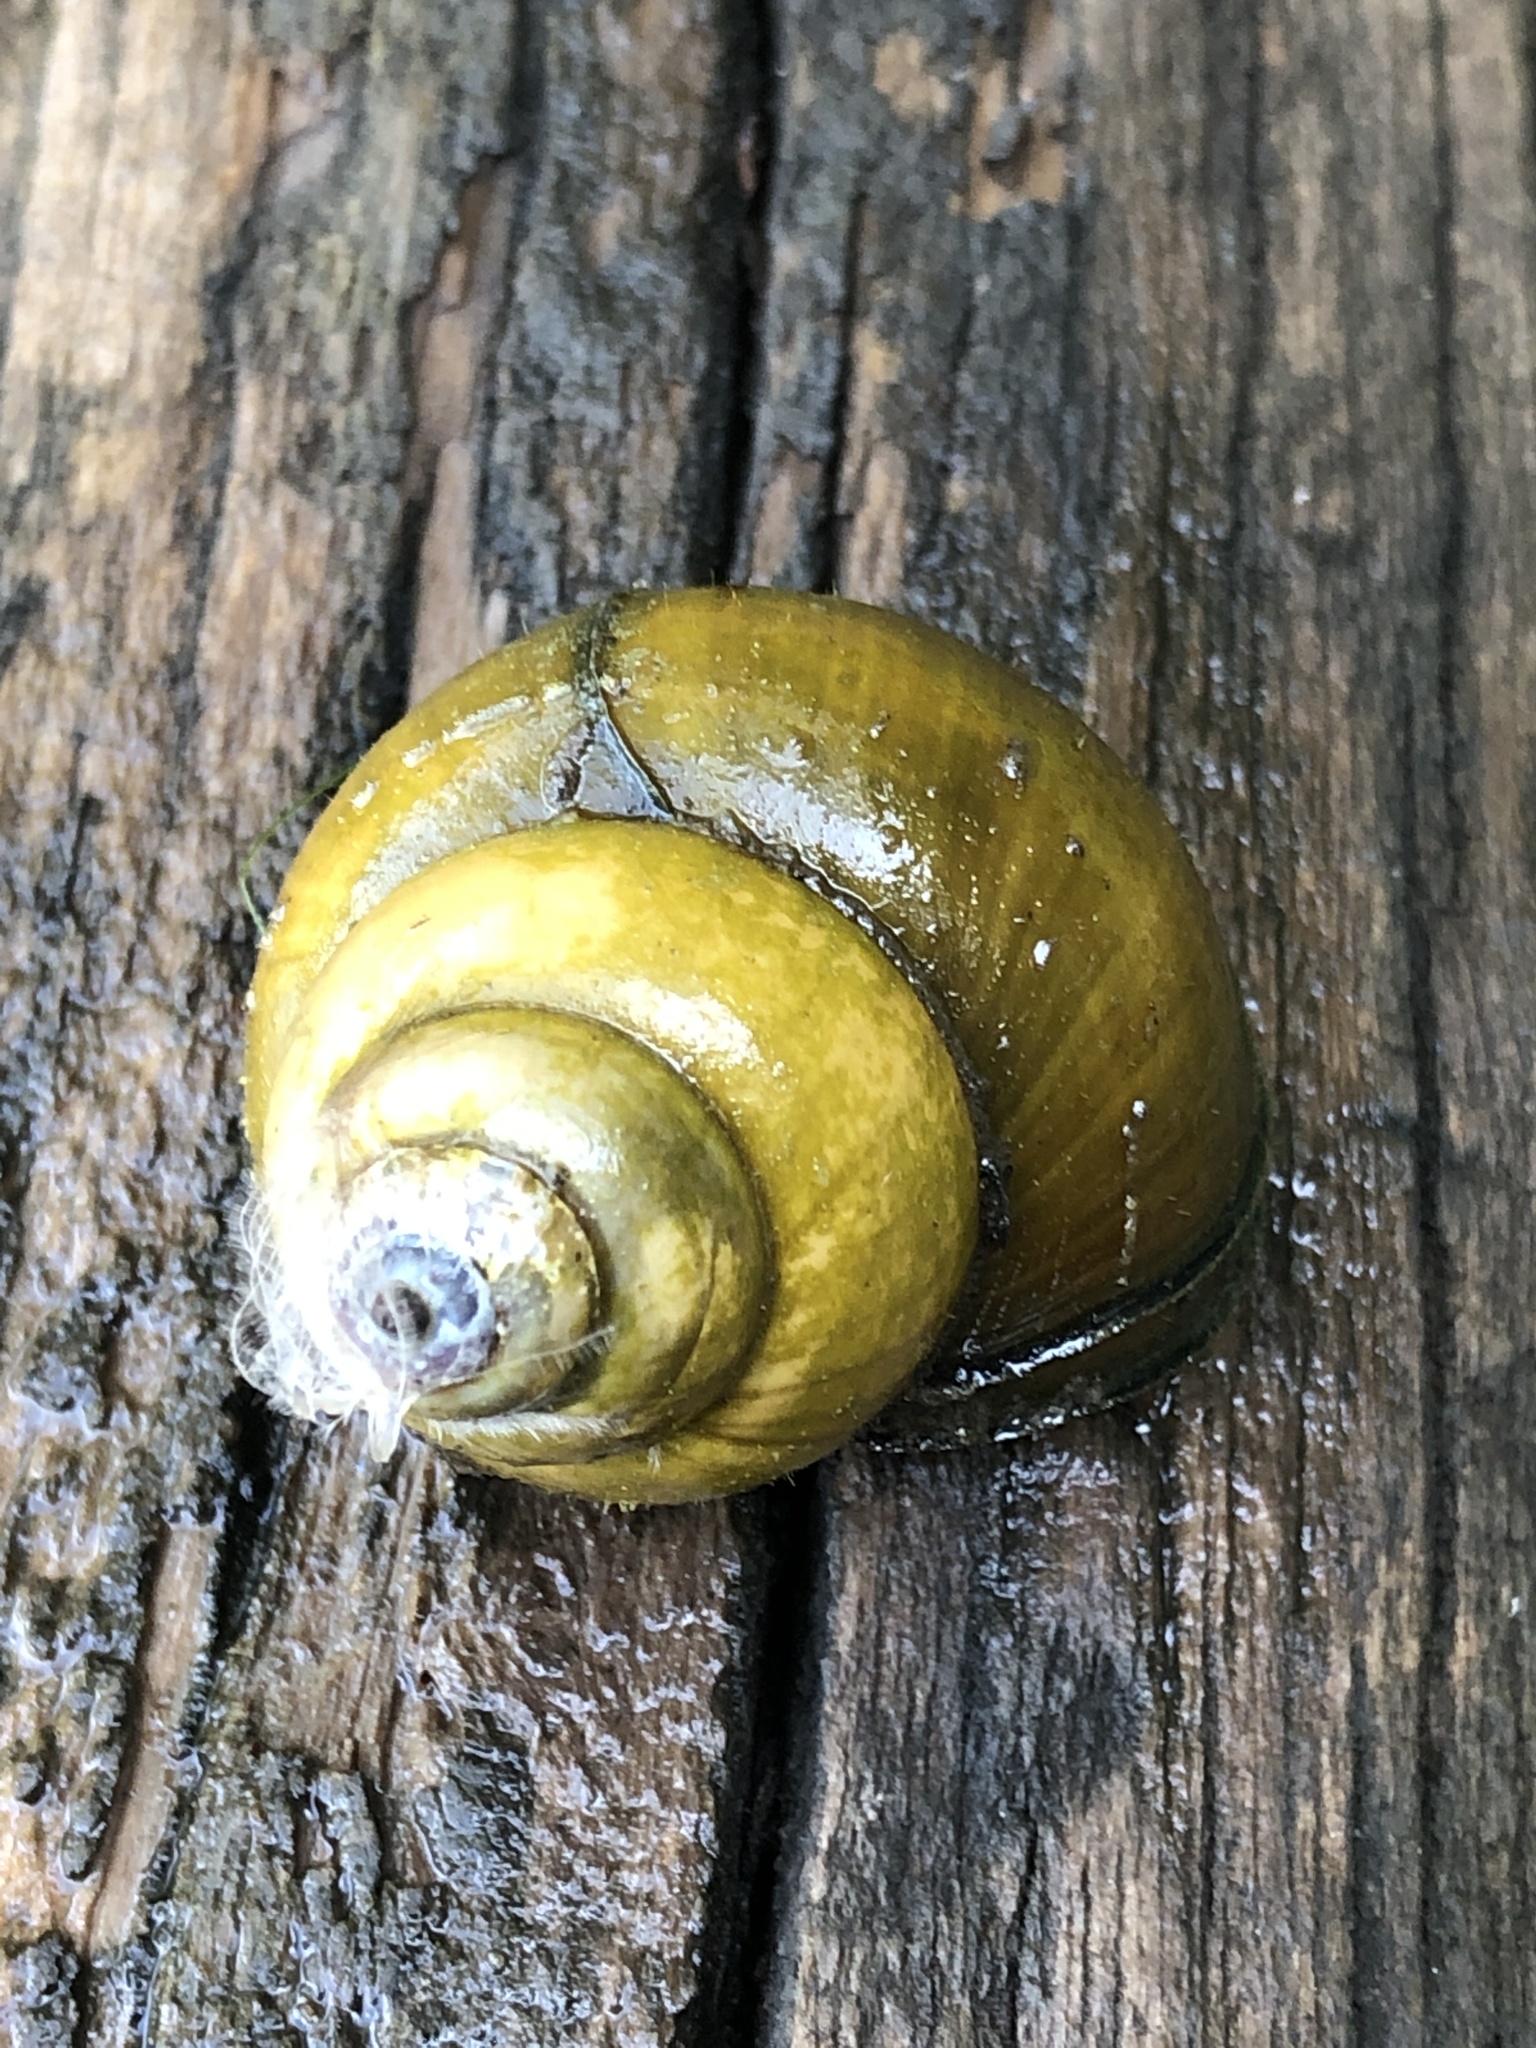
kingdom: Animalia
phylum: Mollusca
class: Gastropoda
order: Architaenioglossa
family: Viviparidae
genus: Cipangopaludina
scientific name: Cipangopaludina chinensis
